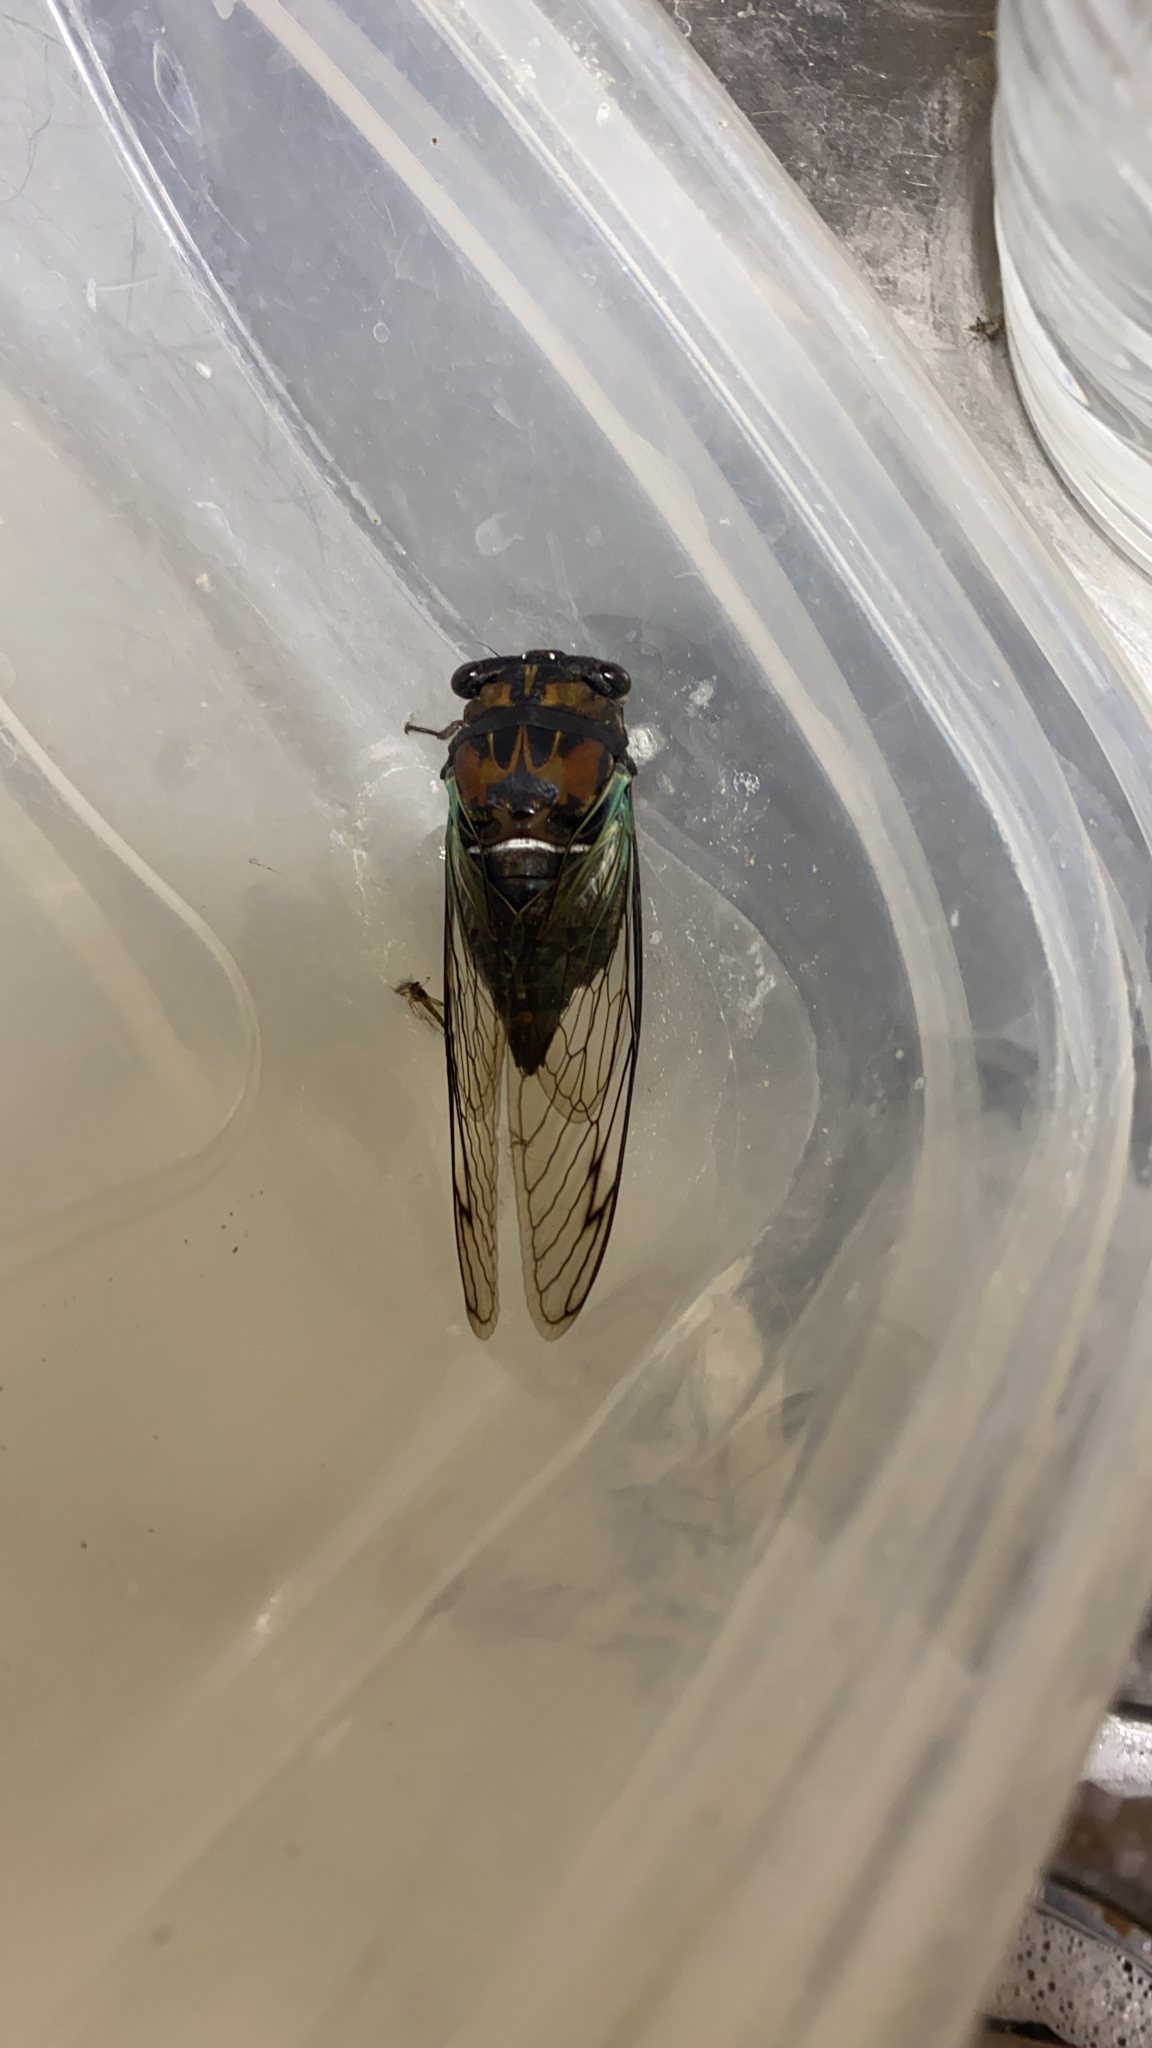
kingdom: Animalia
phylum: Arthropoda
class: Insecta
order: Hemiptera
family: Cicadidae
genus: Neotibicen
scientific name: Neotibicen lyricen
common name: Lyric cicada
